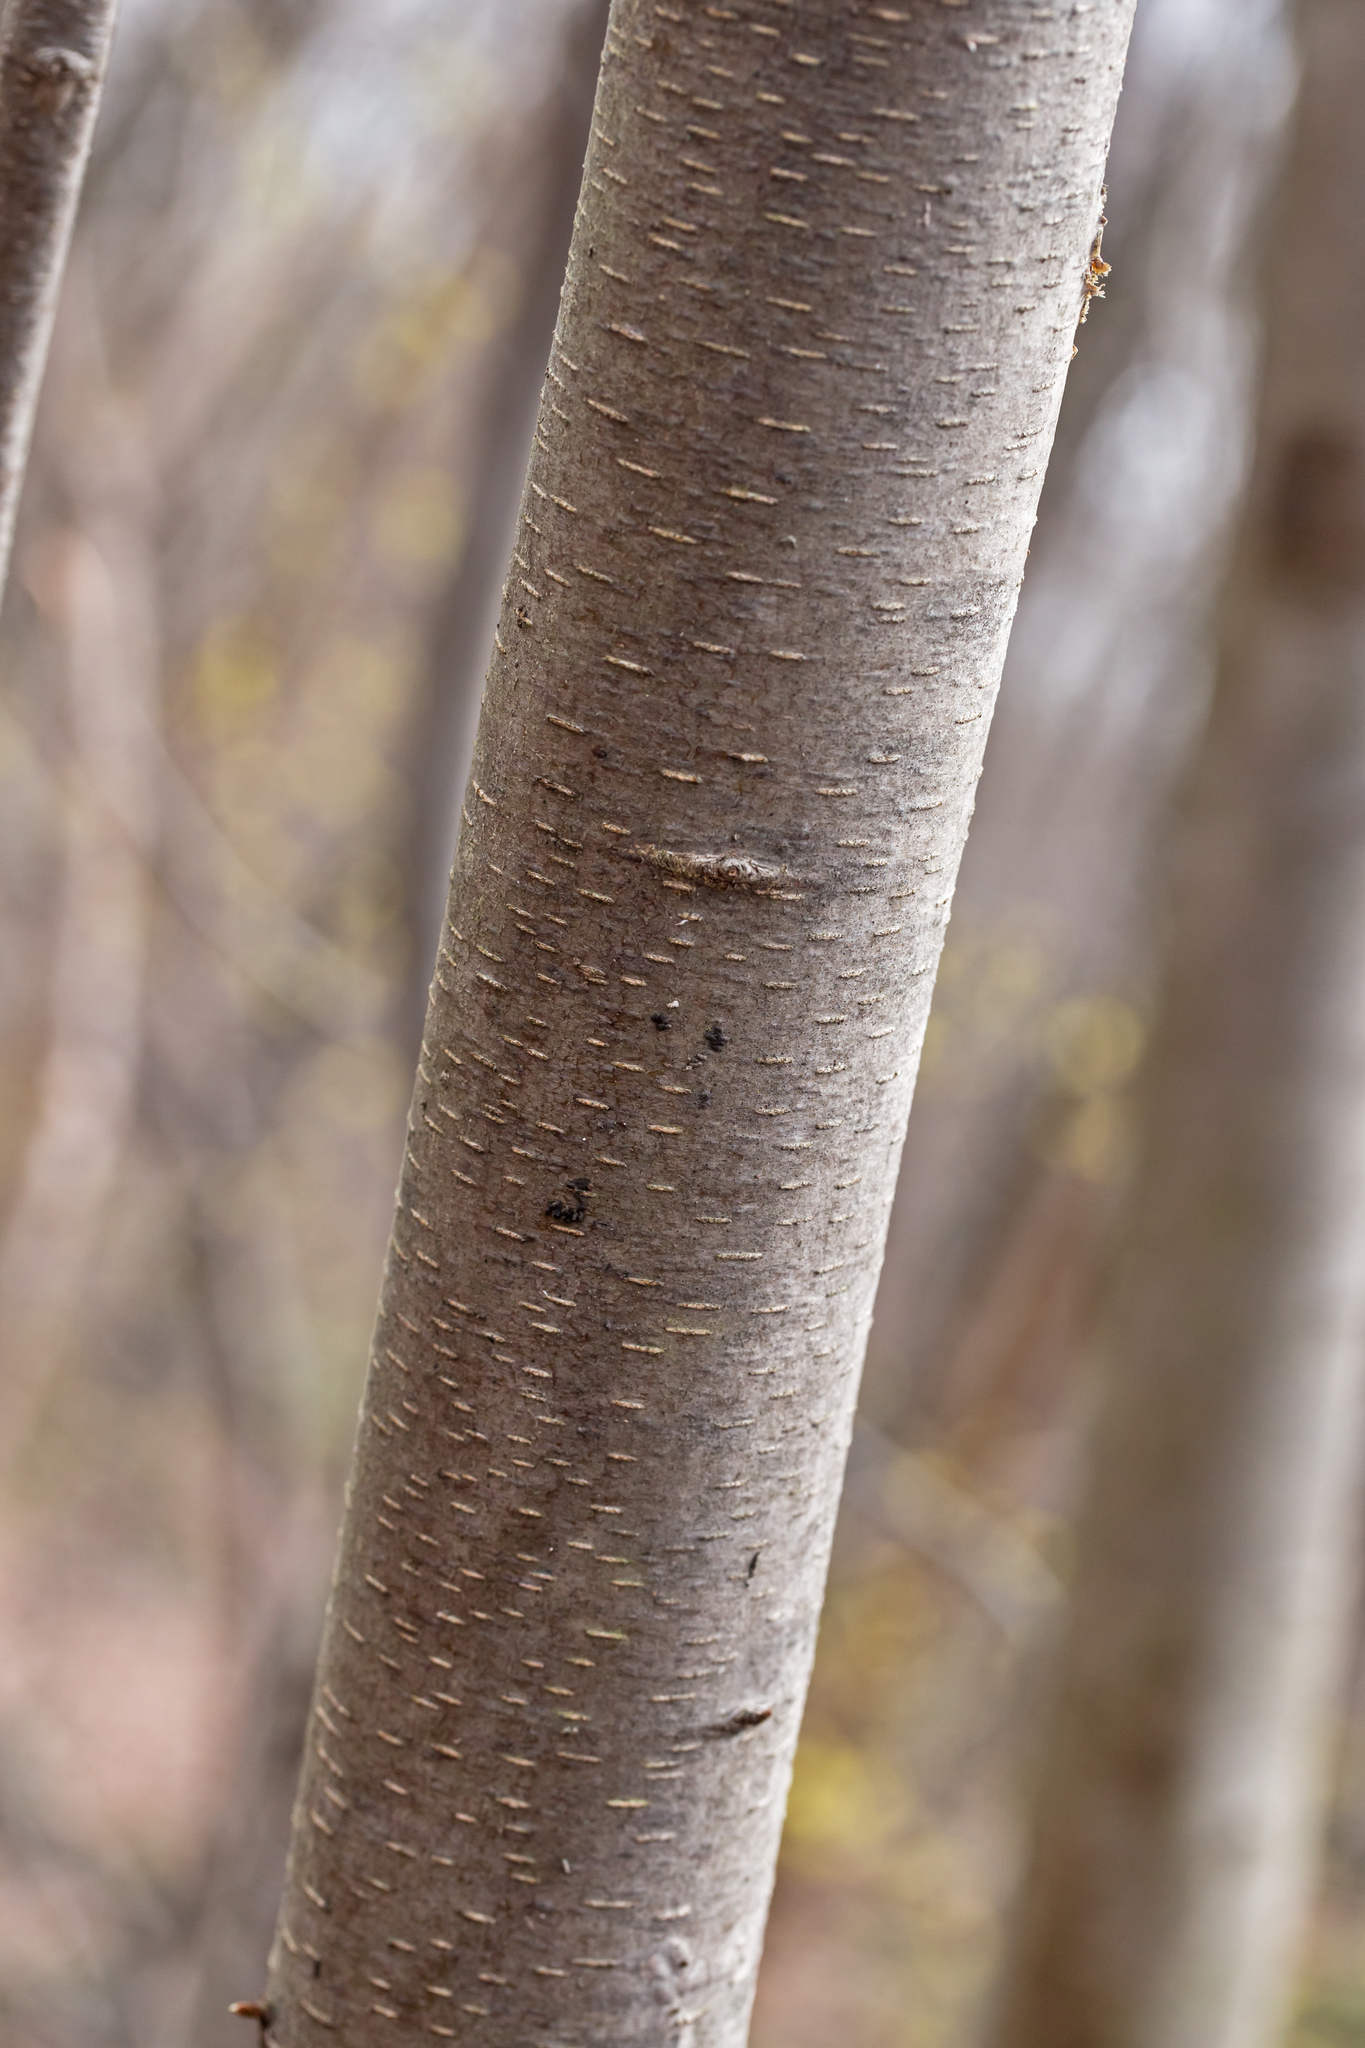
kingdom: Plantae
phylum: Tracheophyta
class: Magnoliopsida
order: Fagales
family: Betulaceae
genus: Betula
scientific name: Betula lenta
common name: Black birch
